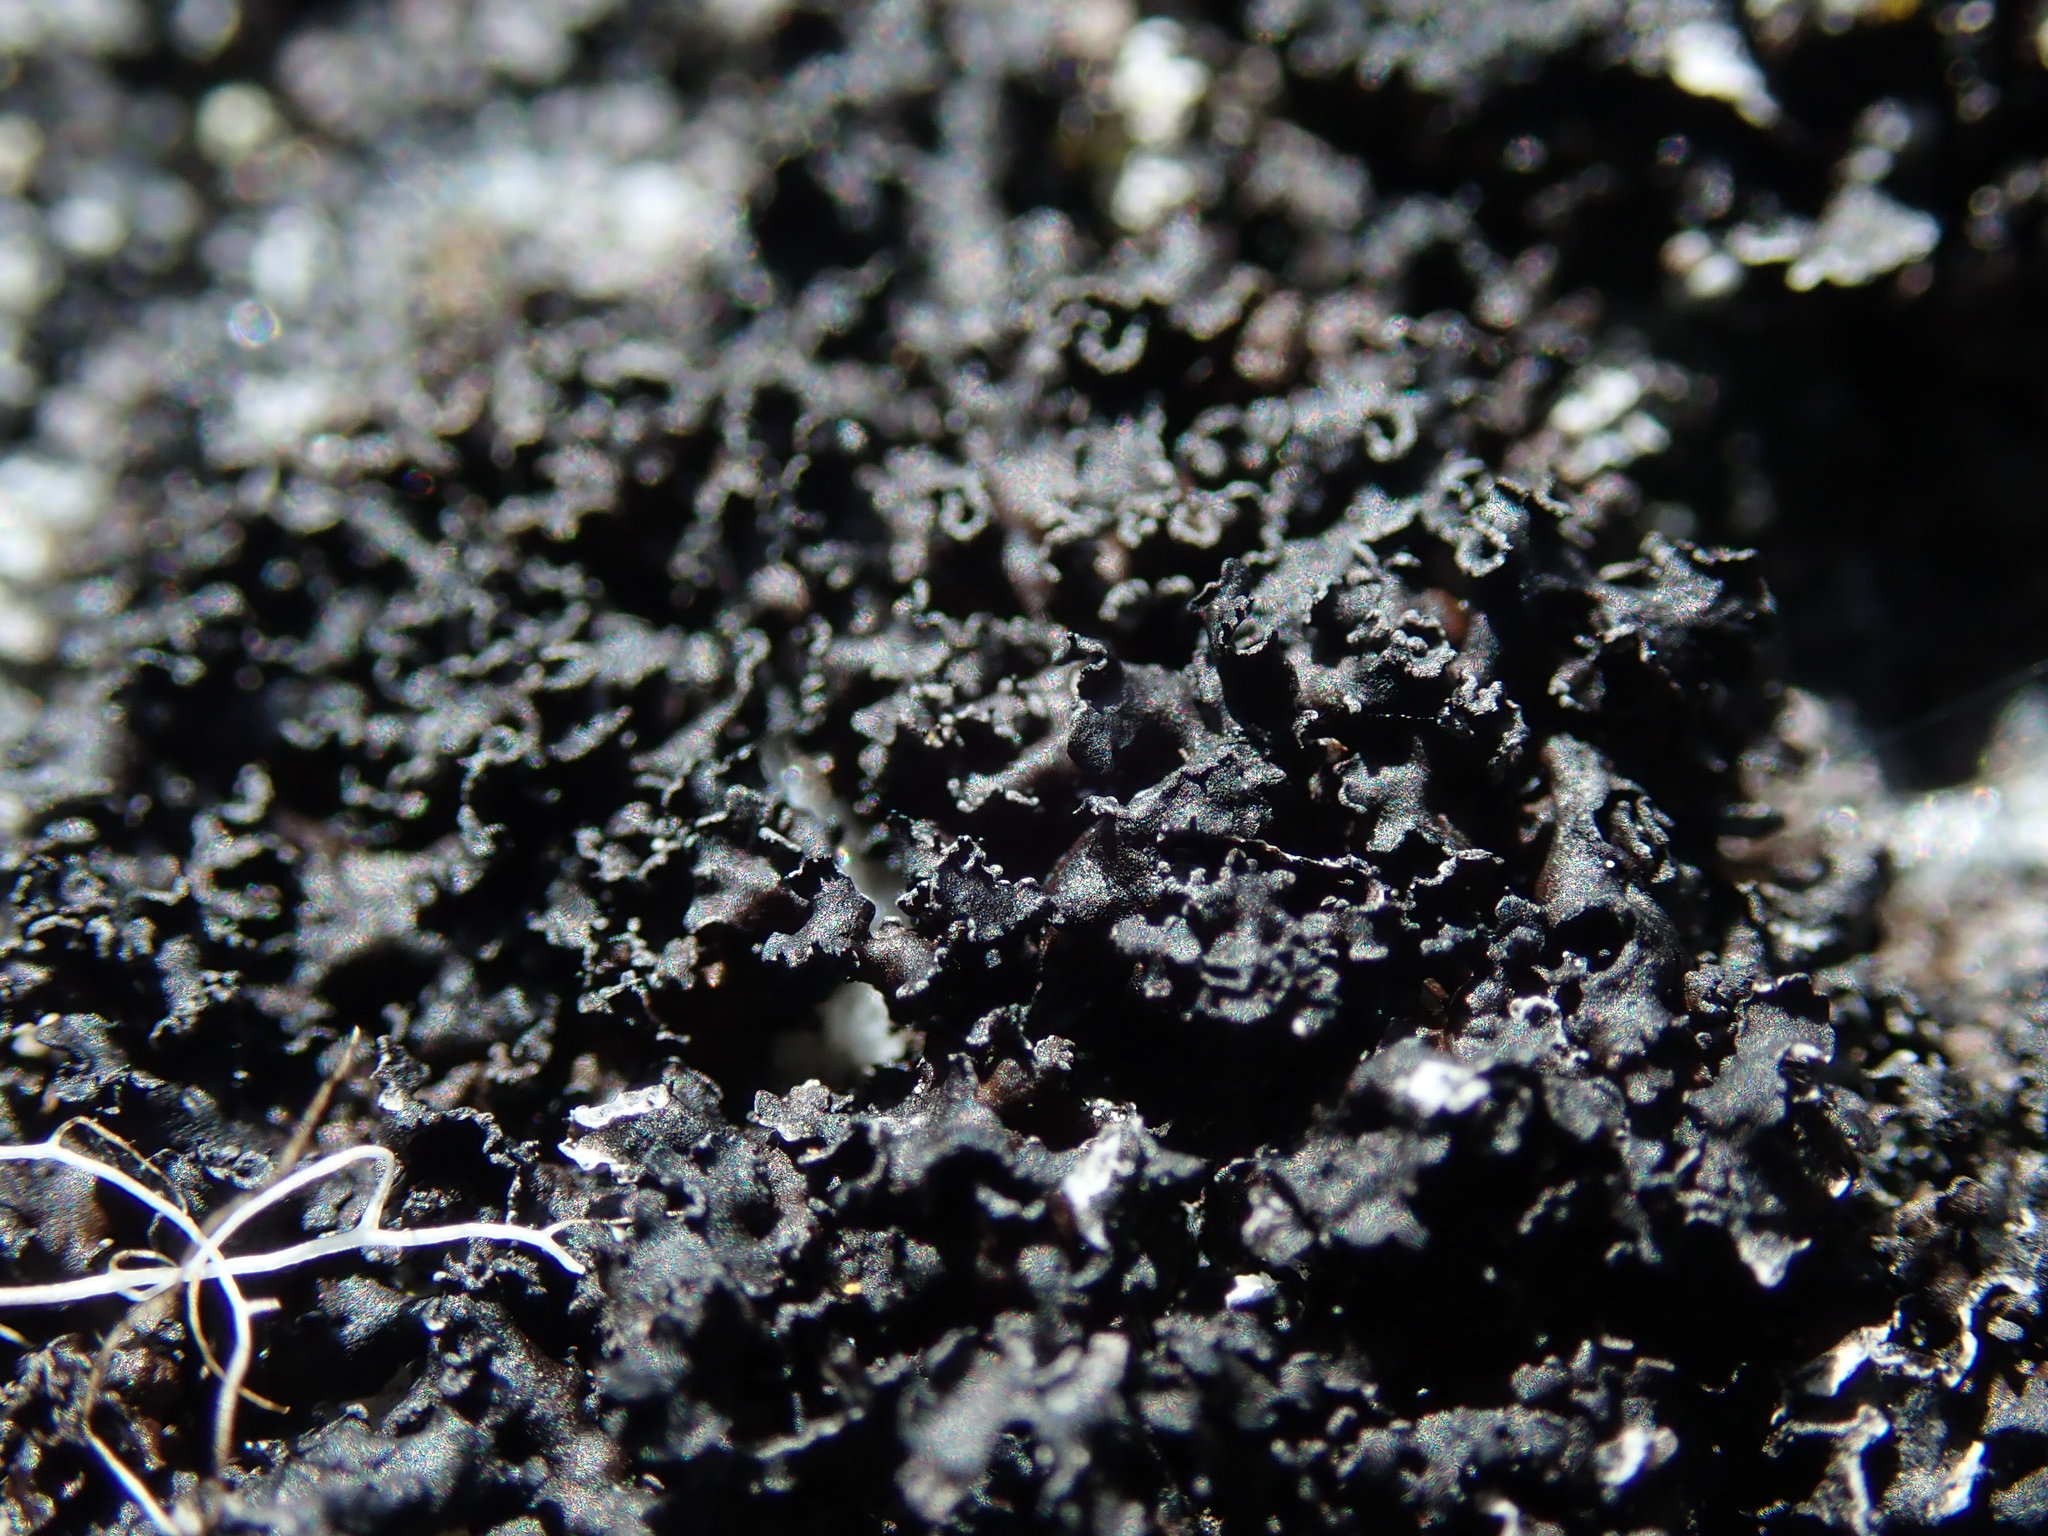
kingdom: Fungi
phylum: Ascomycota
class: Lecanoromycetes
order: Lecanorales
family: Parmeliaceae
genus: Melanelia
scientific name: Melanelia hepatizon
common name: Rimmed camouflage lichen
